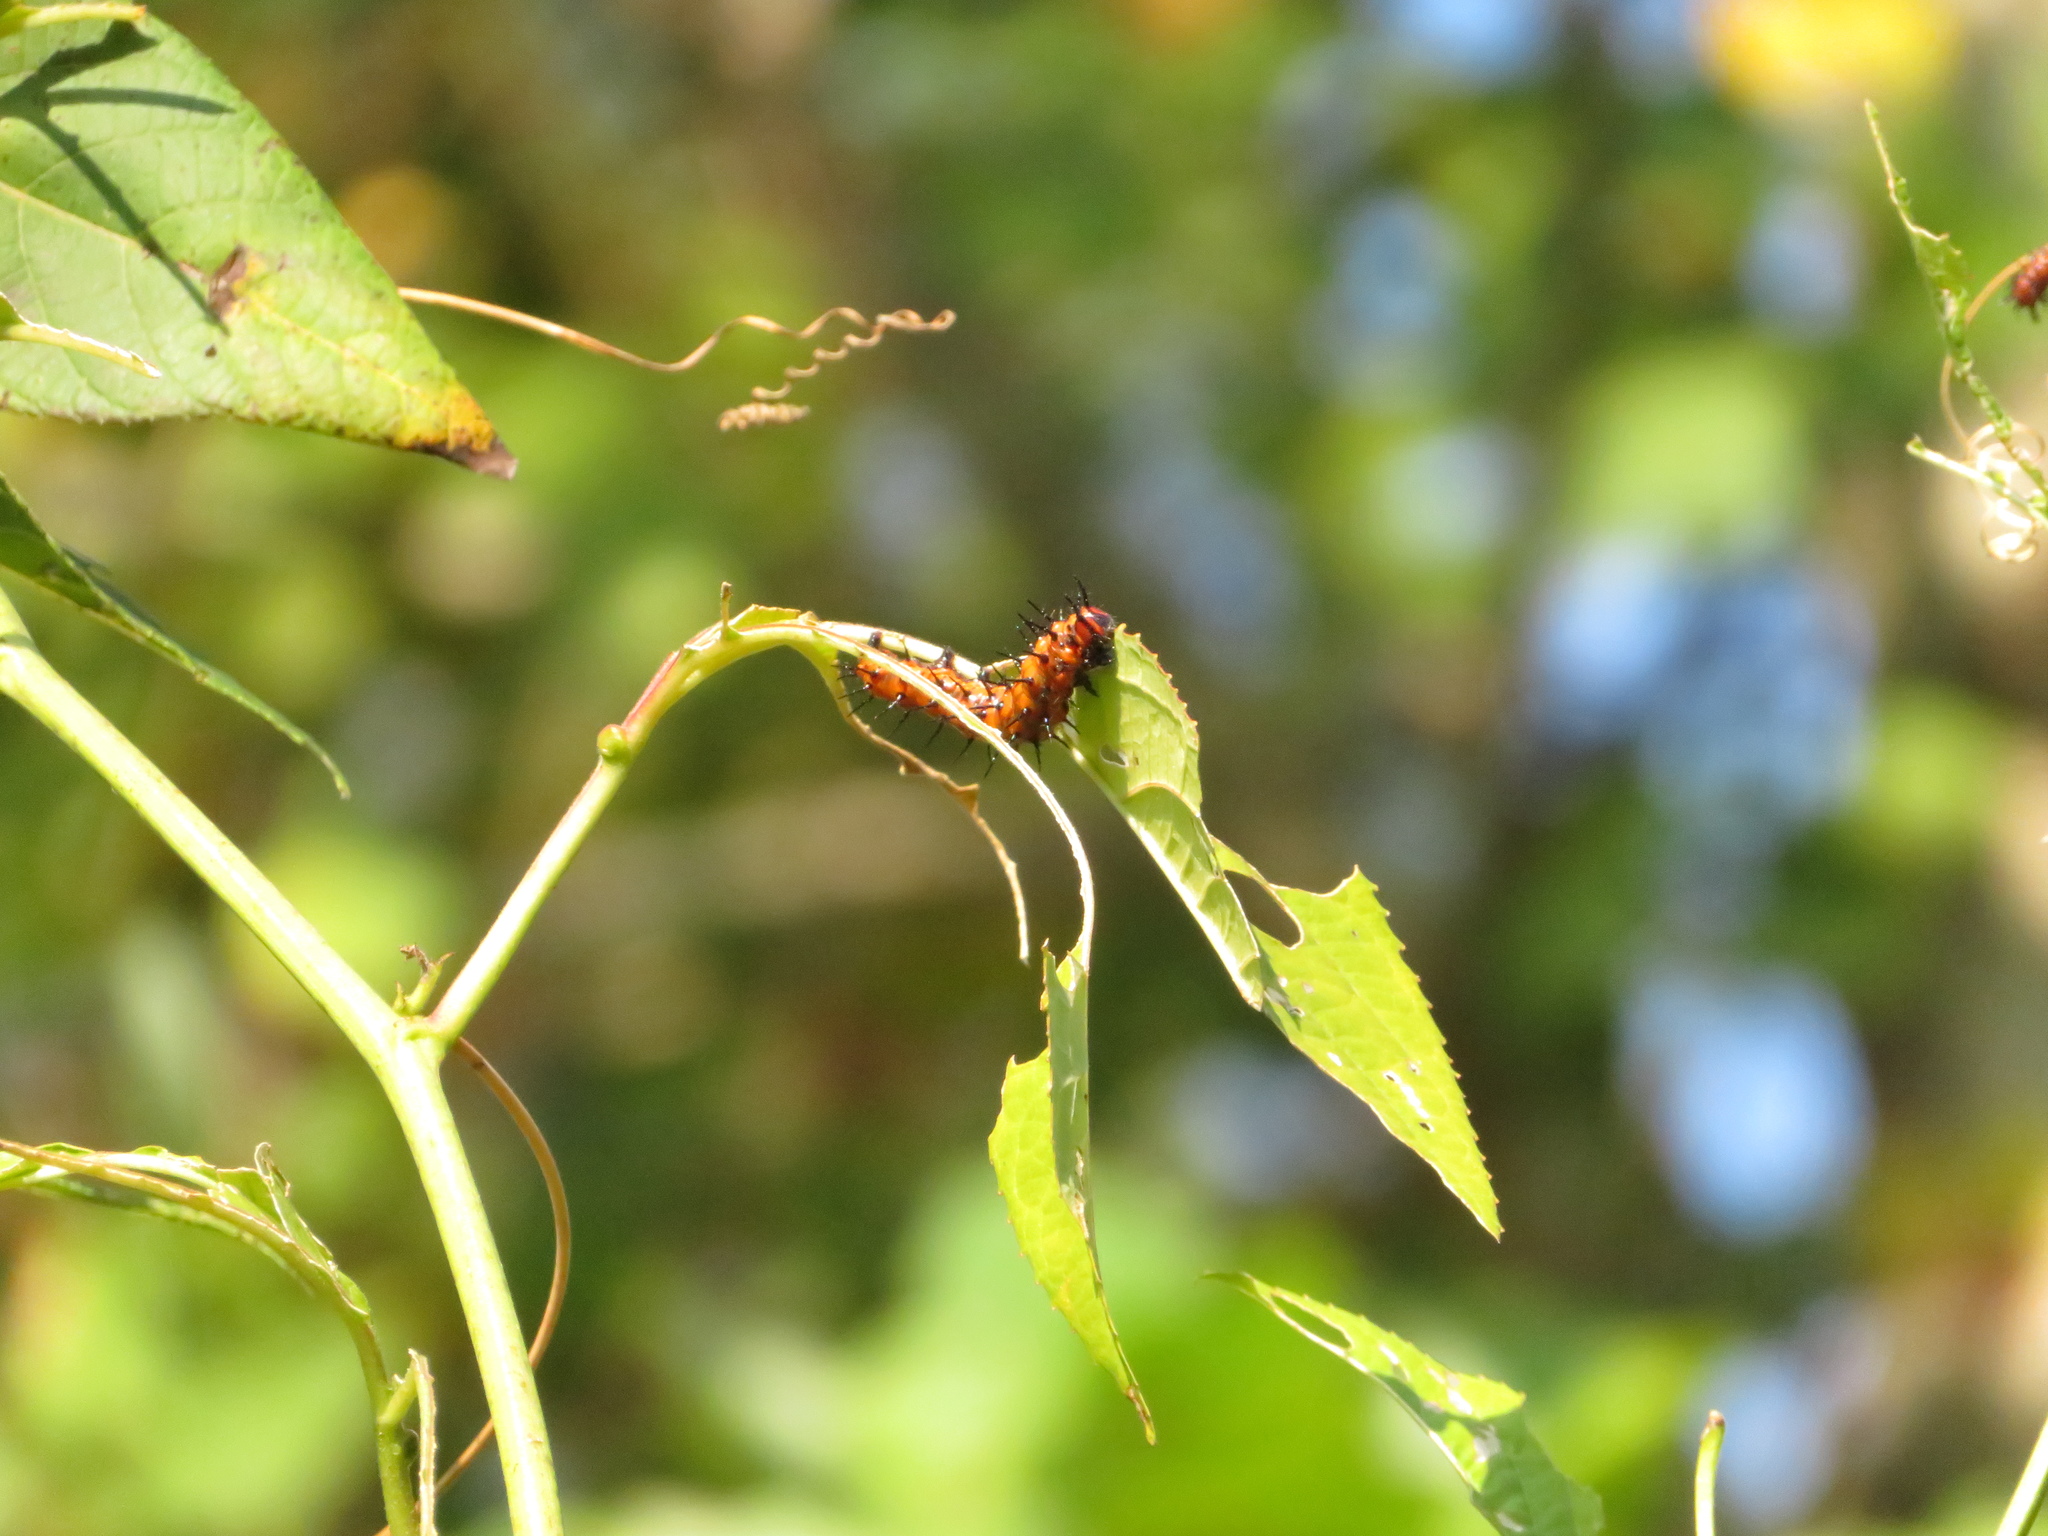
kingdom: Animalia
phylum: Arthropoda
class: Insecta
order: Lepidoptera
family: Nymphalidae
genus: Dione
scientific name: Dione vanillae
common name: Gulf fritillary
